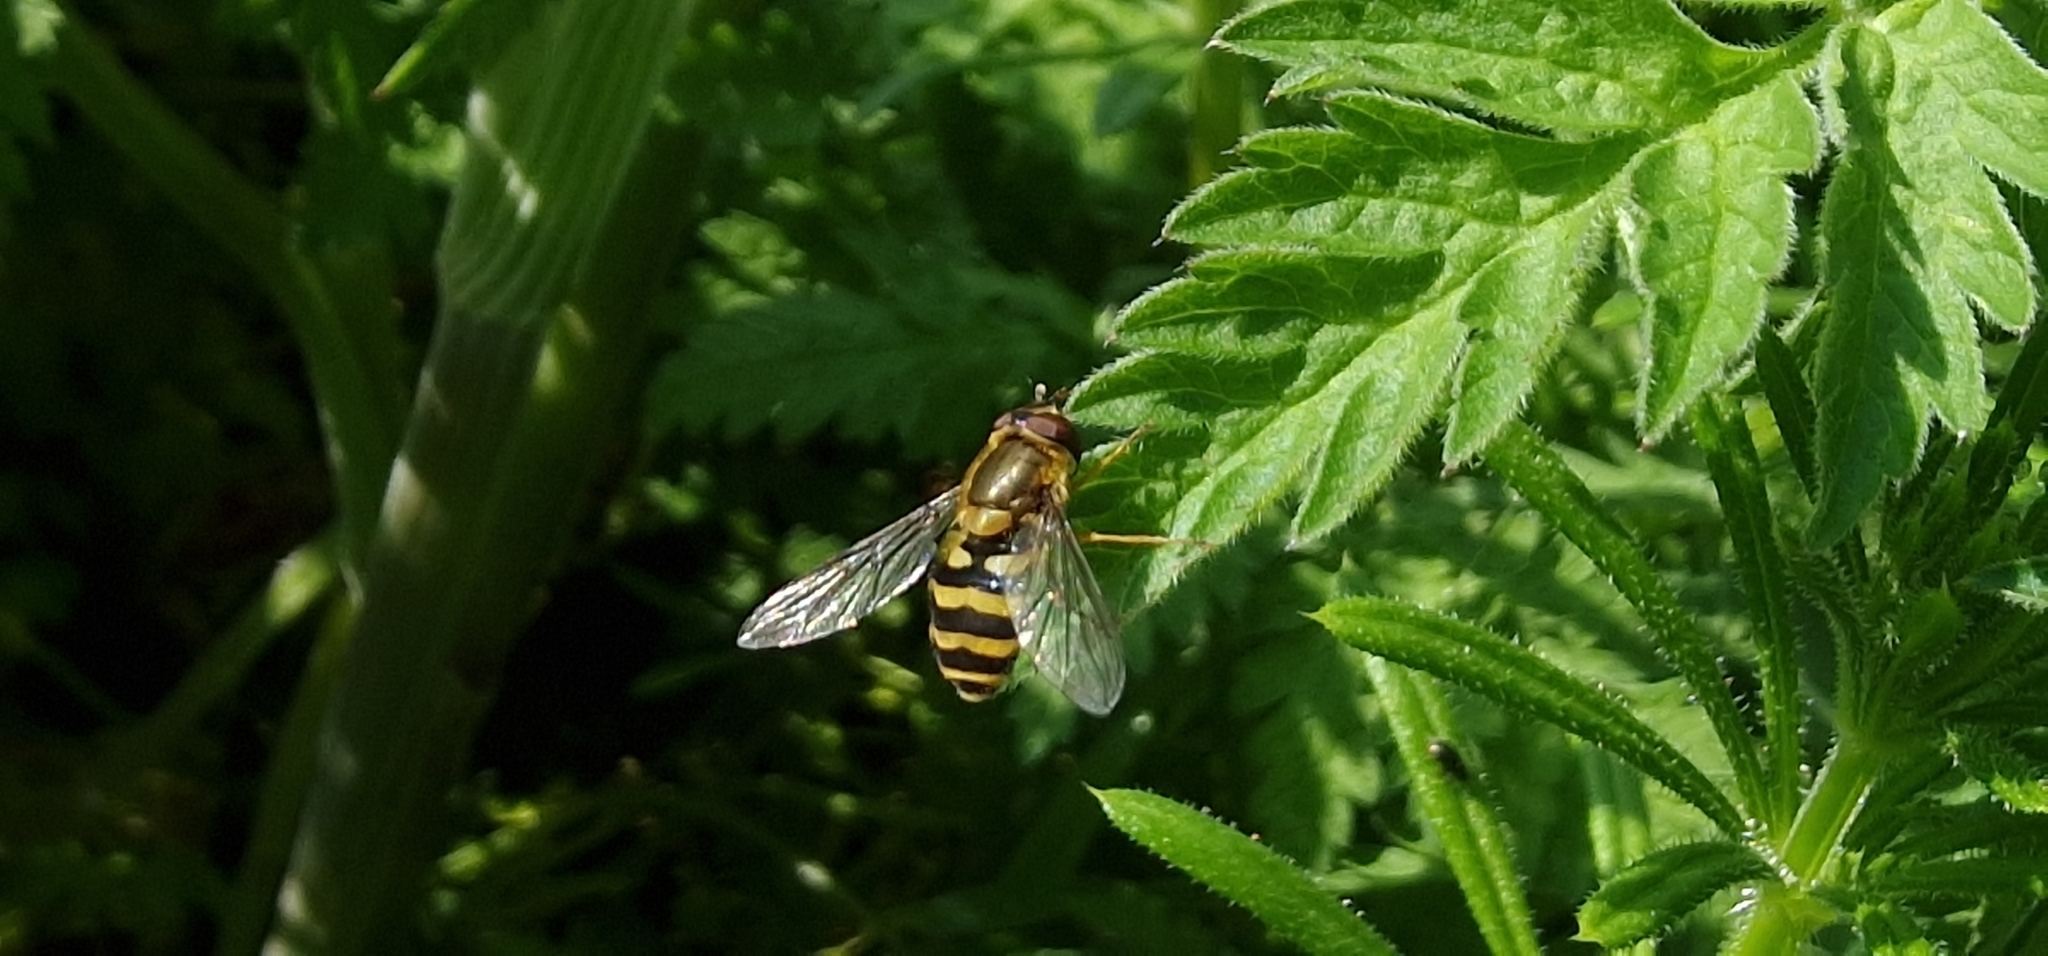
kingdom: Animalia
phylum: Arthropoda
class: Insecta
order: Diptera
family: Syrphidae
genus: Syrphus
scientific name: Syrphus
